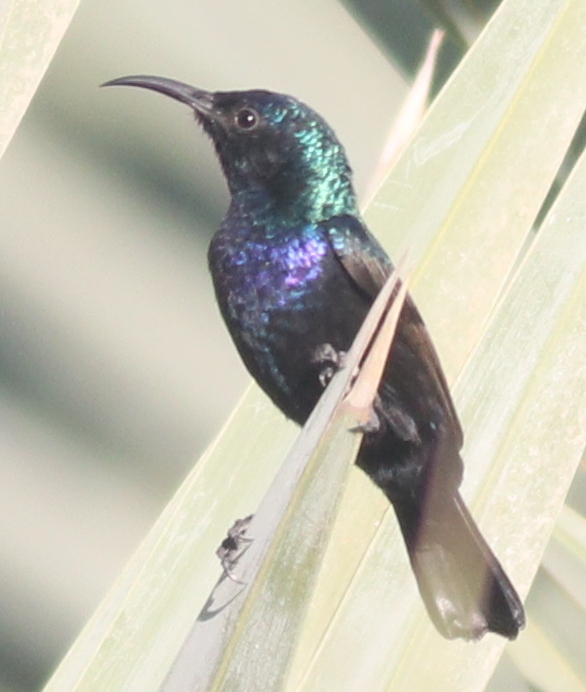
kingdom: Animalia
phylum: Chordata
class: Aves
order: Passeriformes
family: Nectariniidae
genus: Cinnyris
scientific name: Cinnyris osea
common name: Palestine sunbird
